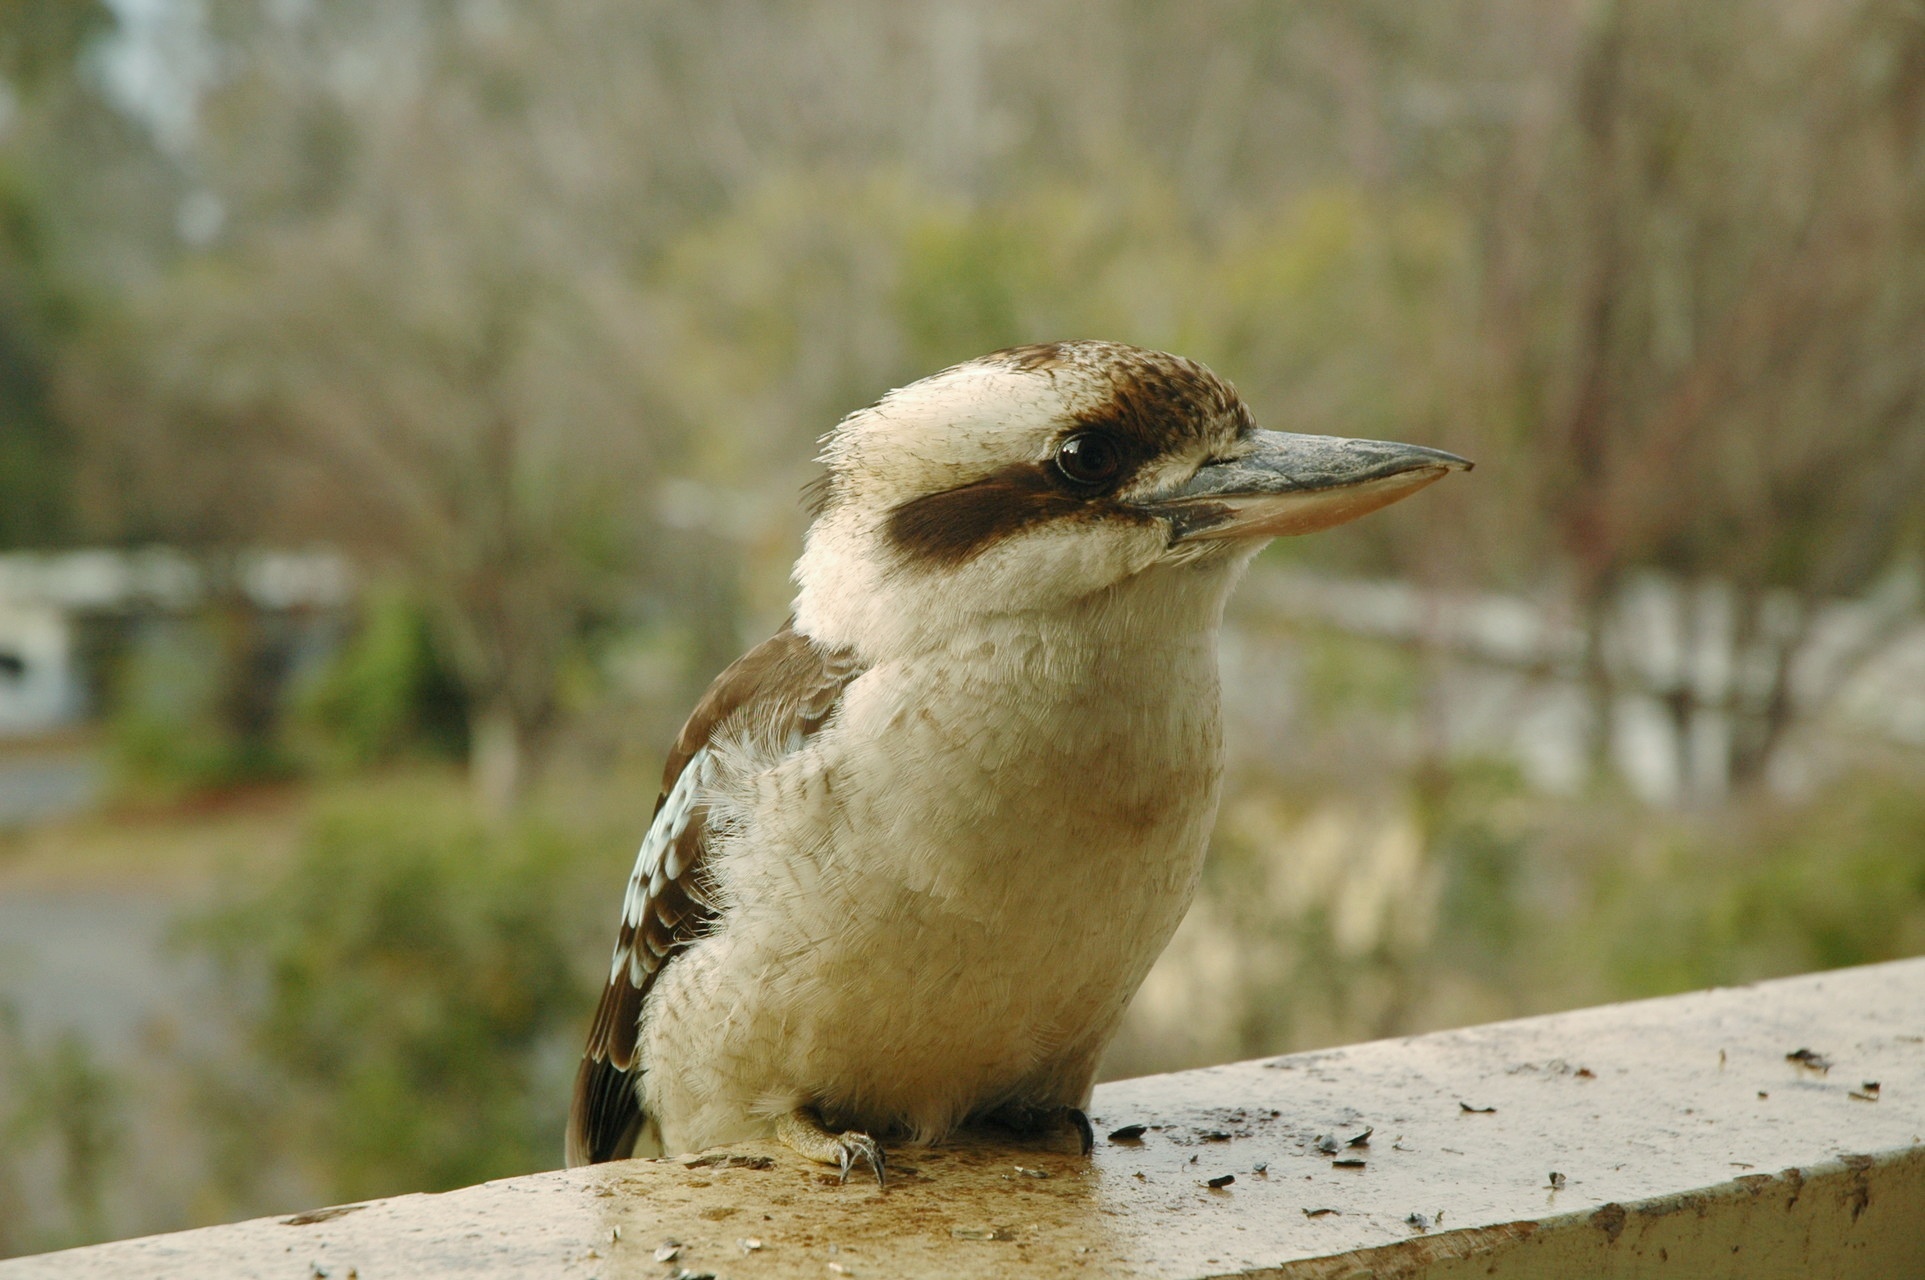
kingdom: Animalia
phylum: Chordata
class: Aves
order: Coraciiformes
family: Alcedinidae
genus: Dacelo
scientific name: Dacelo novaeguineae
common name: Laughing kookaburra
